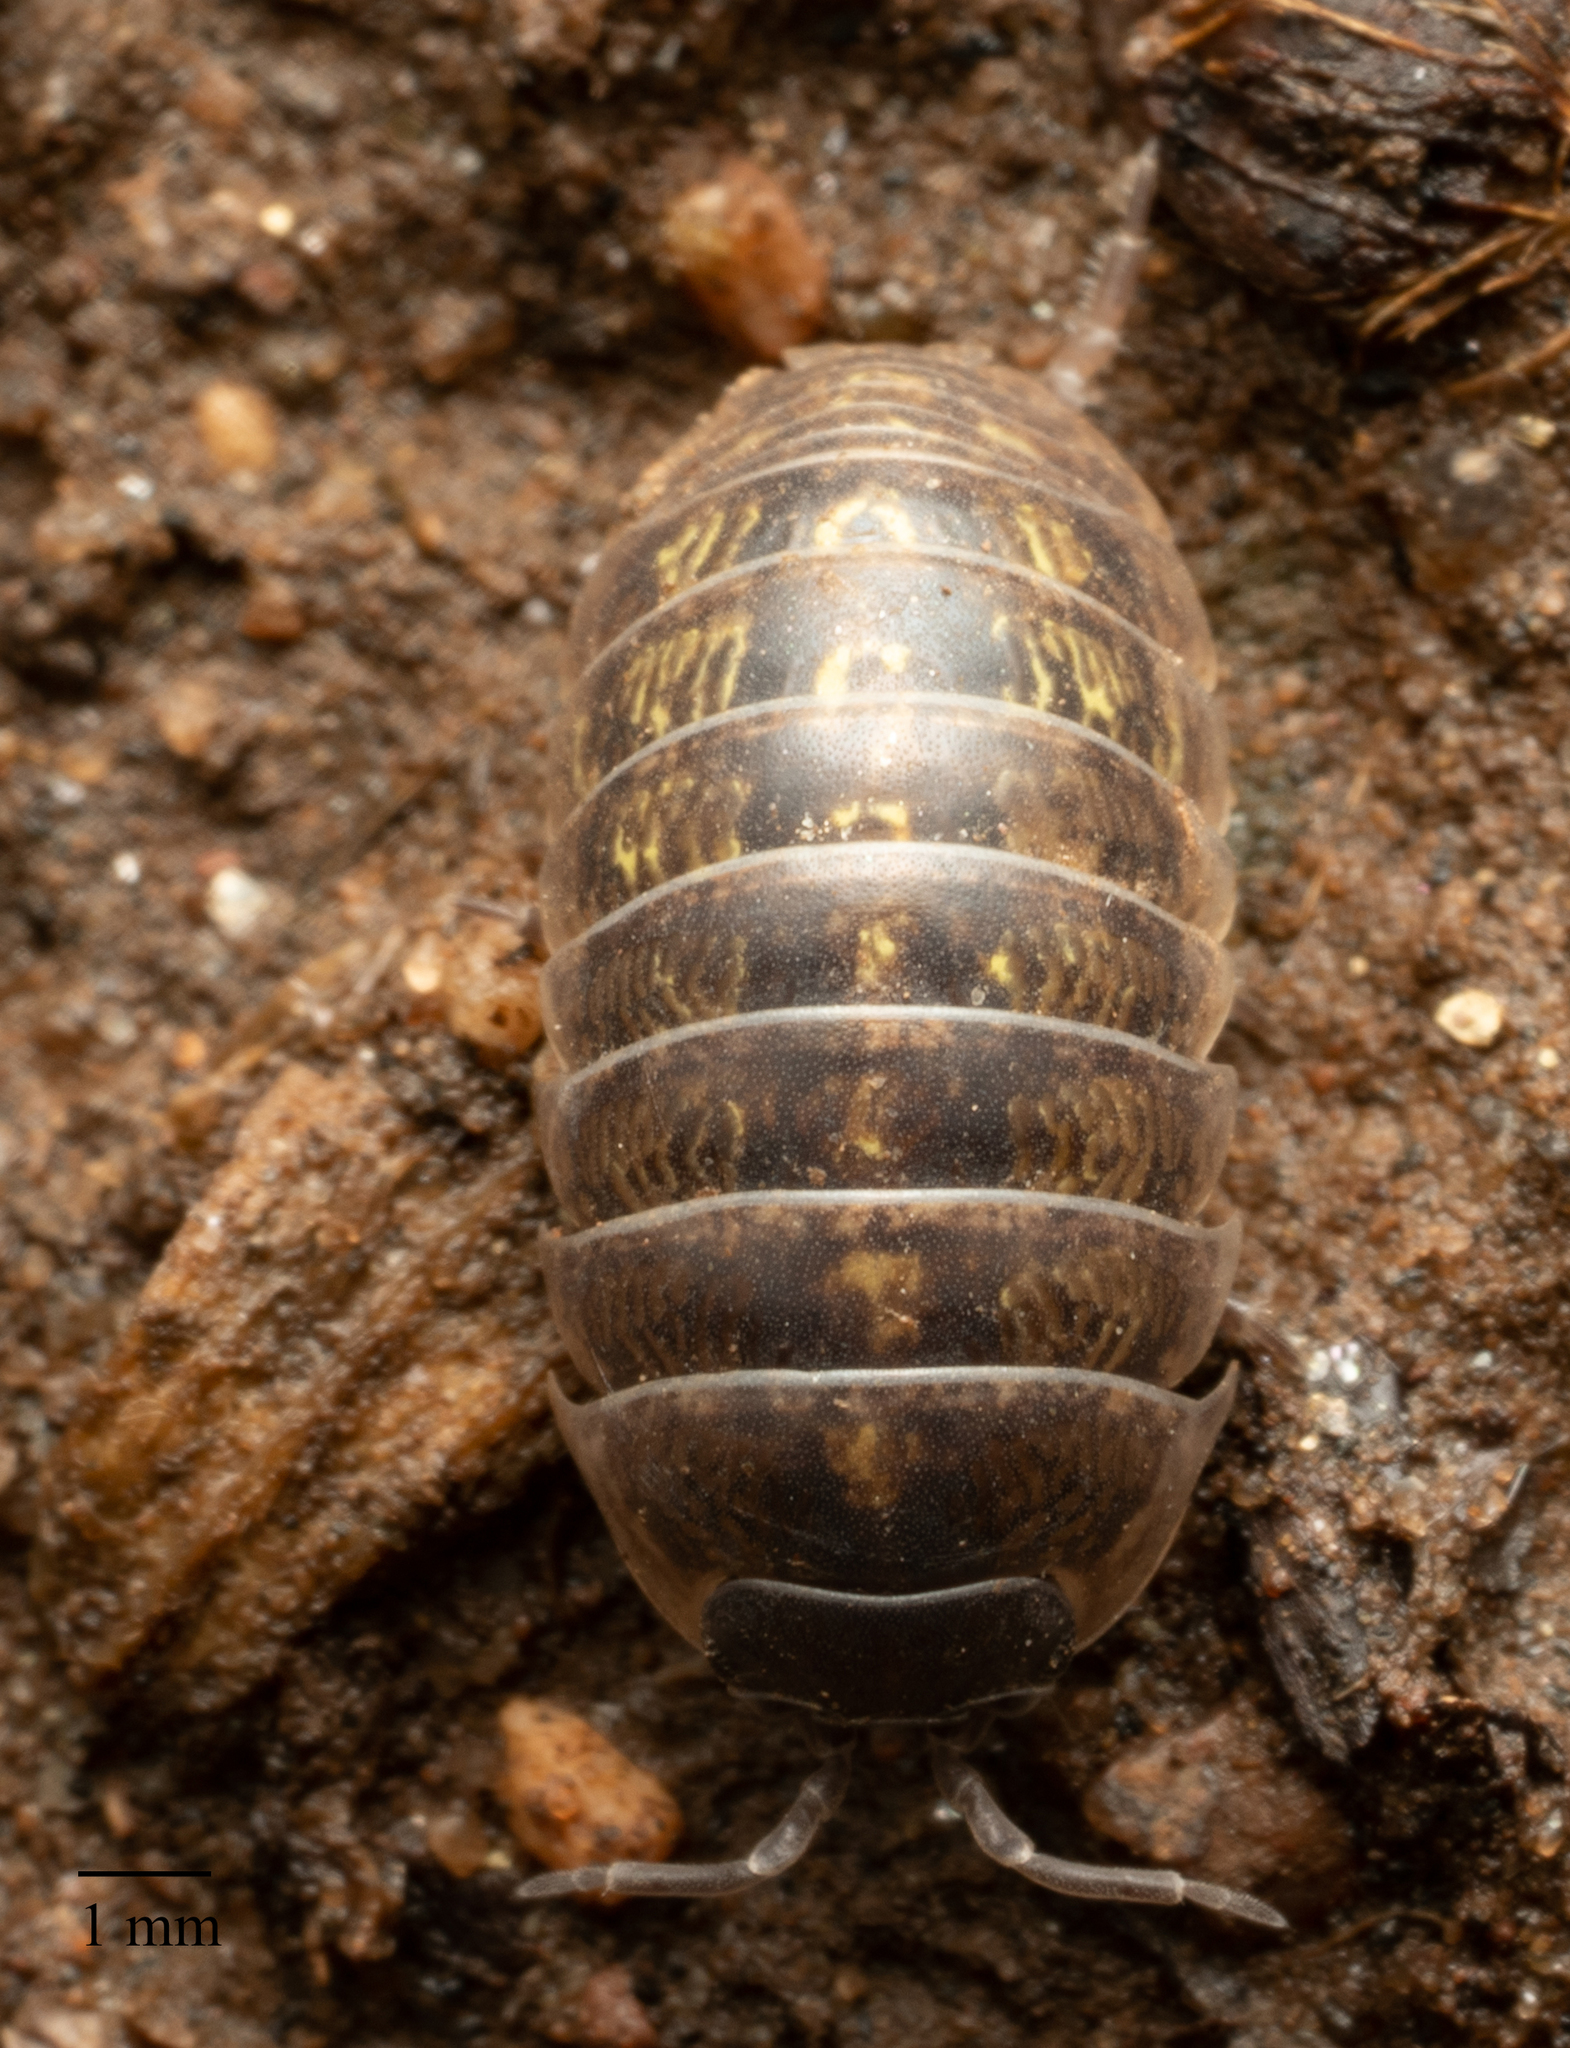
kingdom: Animalia
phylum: Arthropoda
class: Malacostraca
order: Isopoda
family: Armadillidiidae
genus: Armadillidium
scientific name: Armadillidium vulgare
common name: Common pill woodlouse
